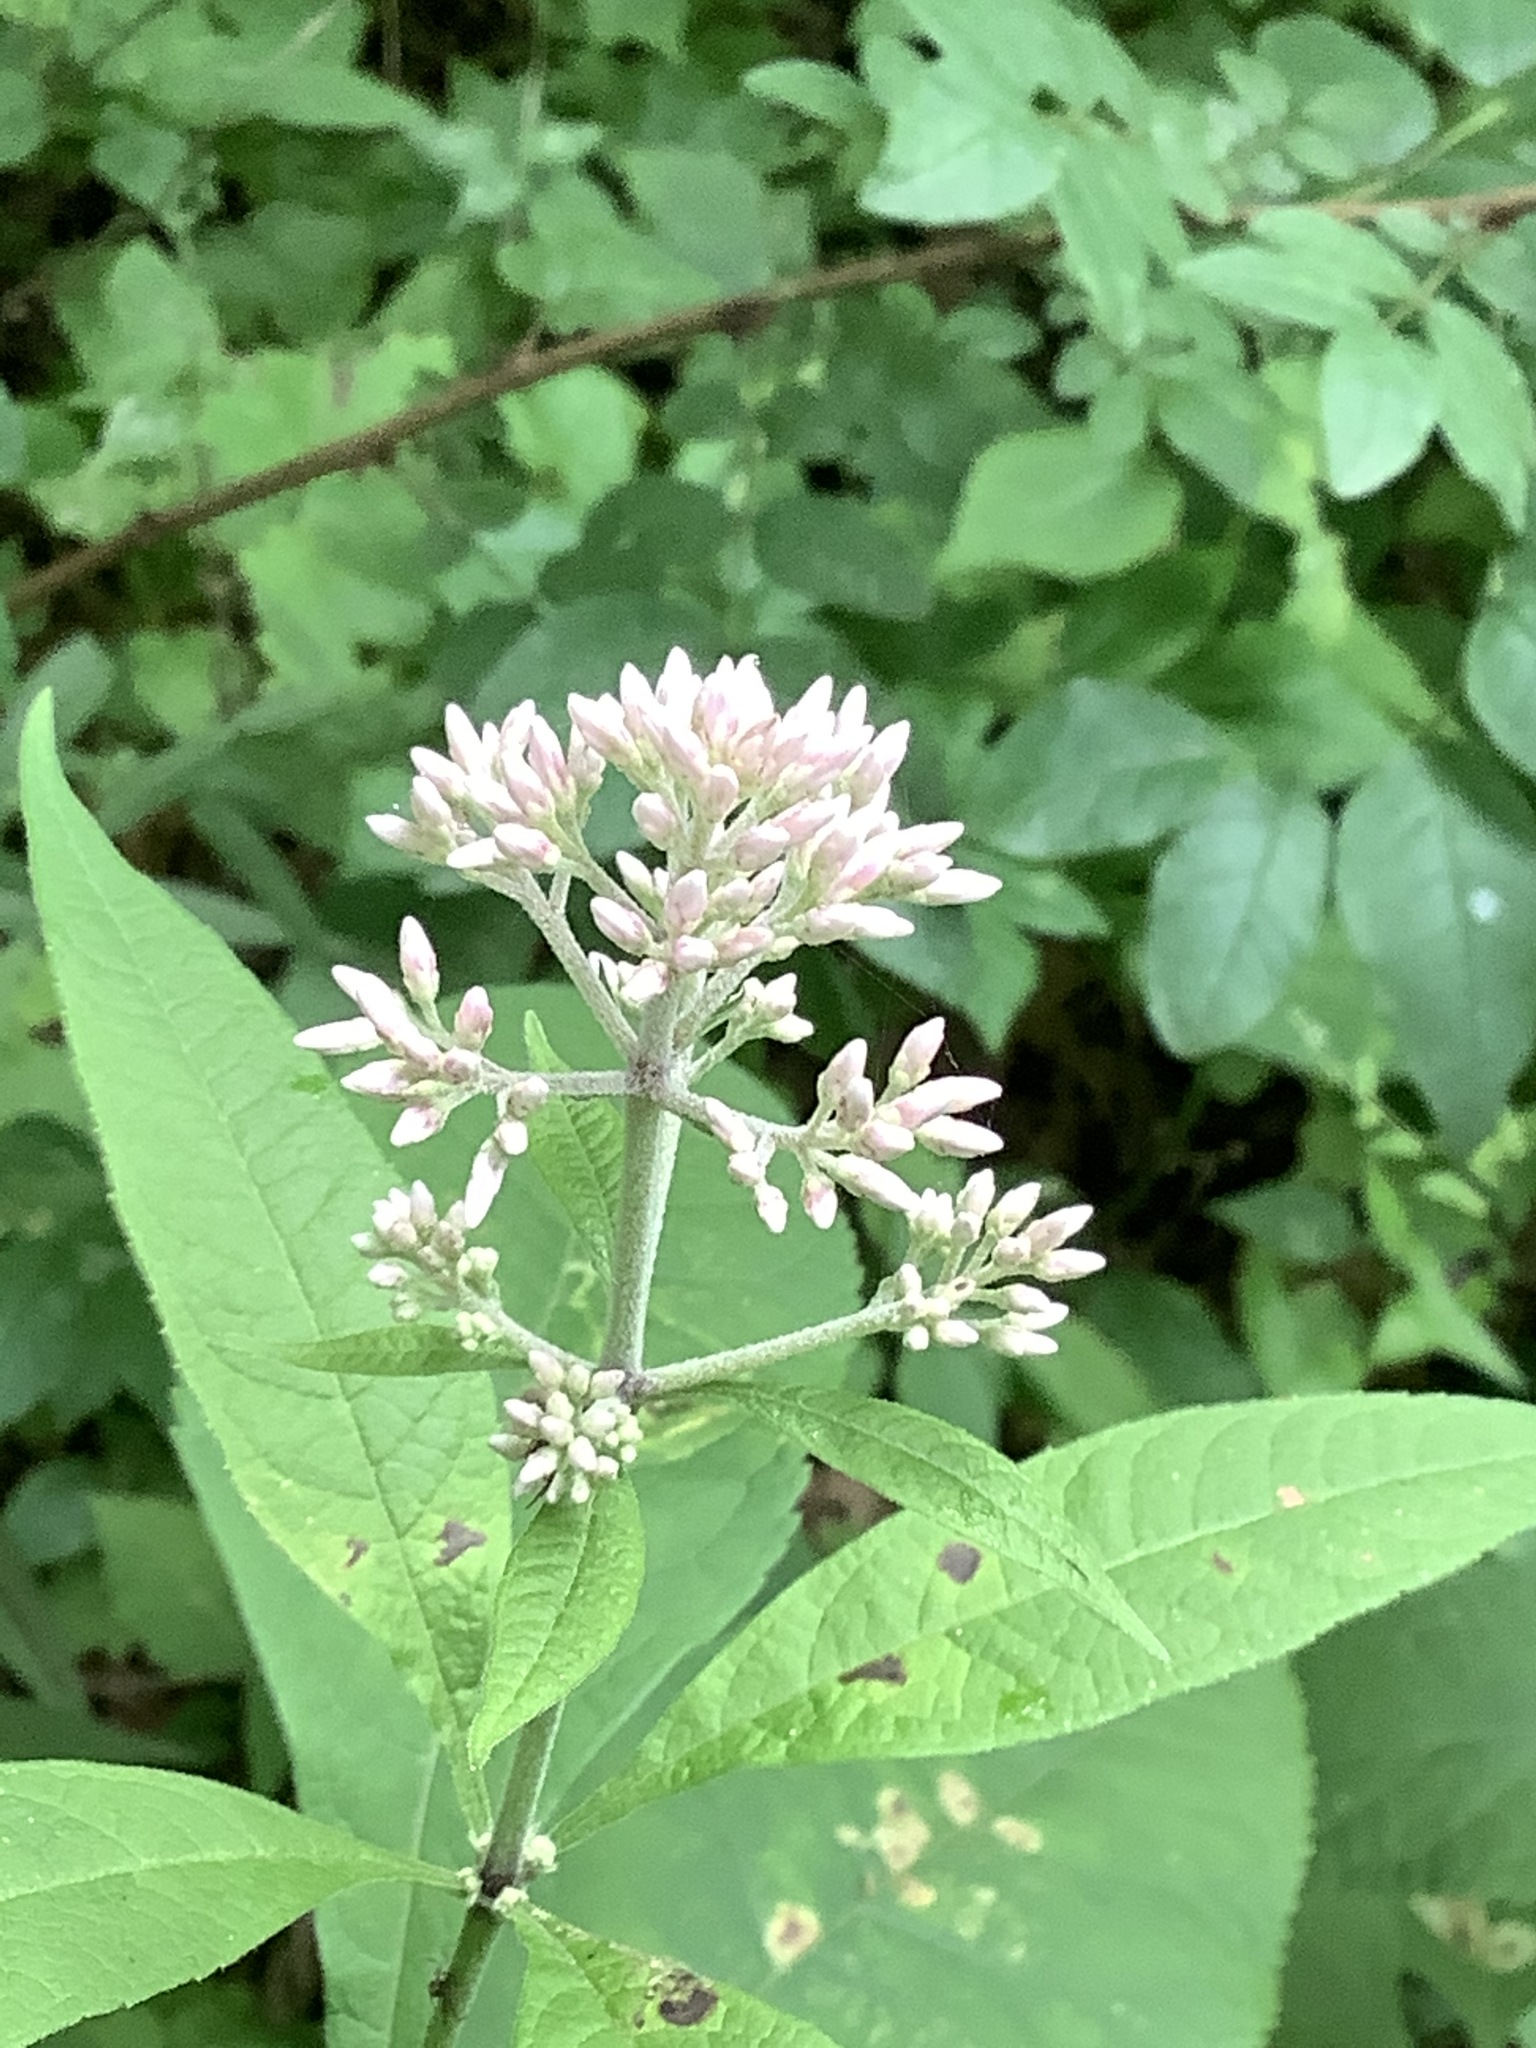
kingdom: Plantae
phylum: Tracheophyta
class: Magnoliopsida
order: Asterales
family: Asteraceae
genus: Eutrochium
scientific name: Eutrochium purpureum
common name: Gravelroot
